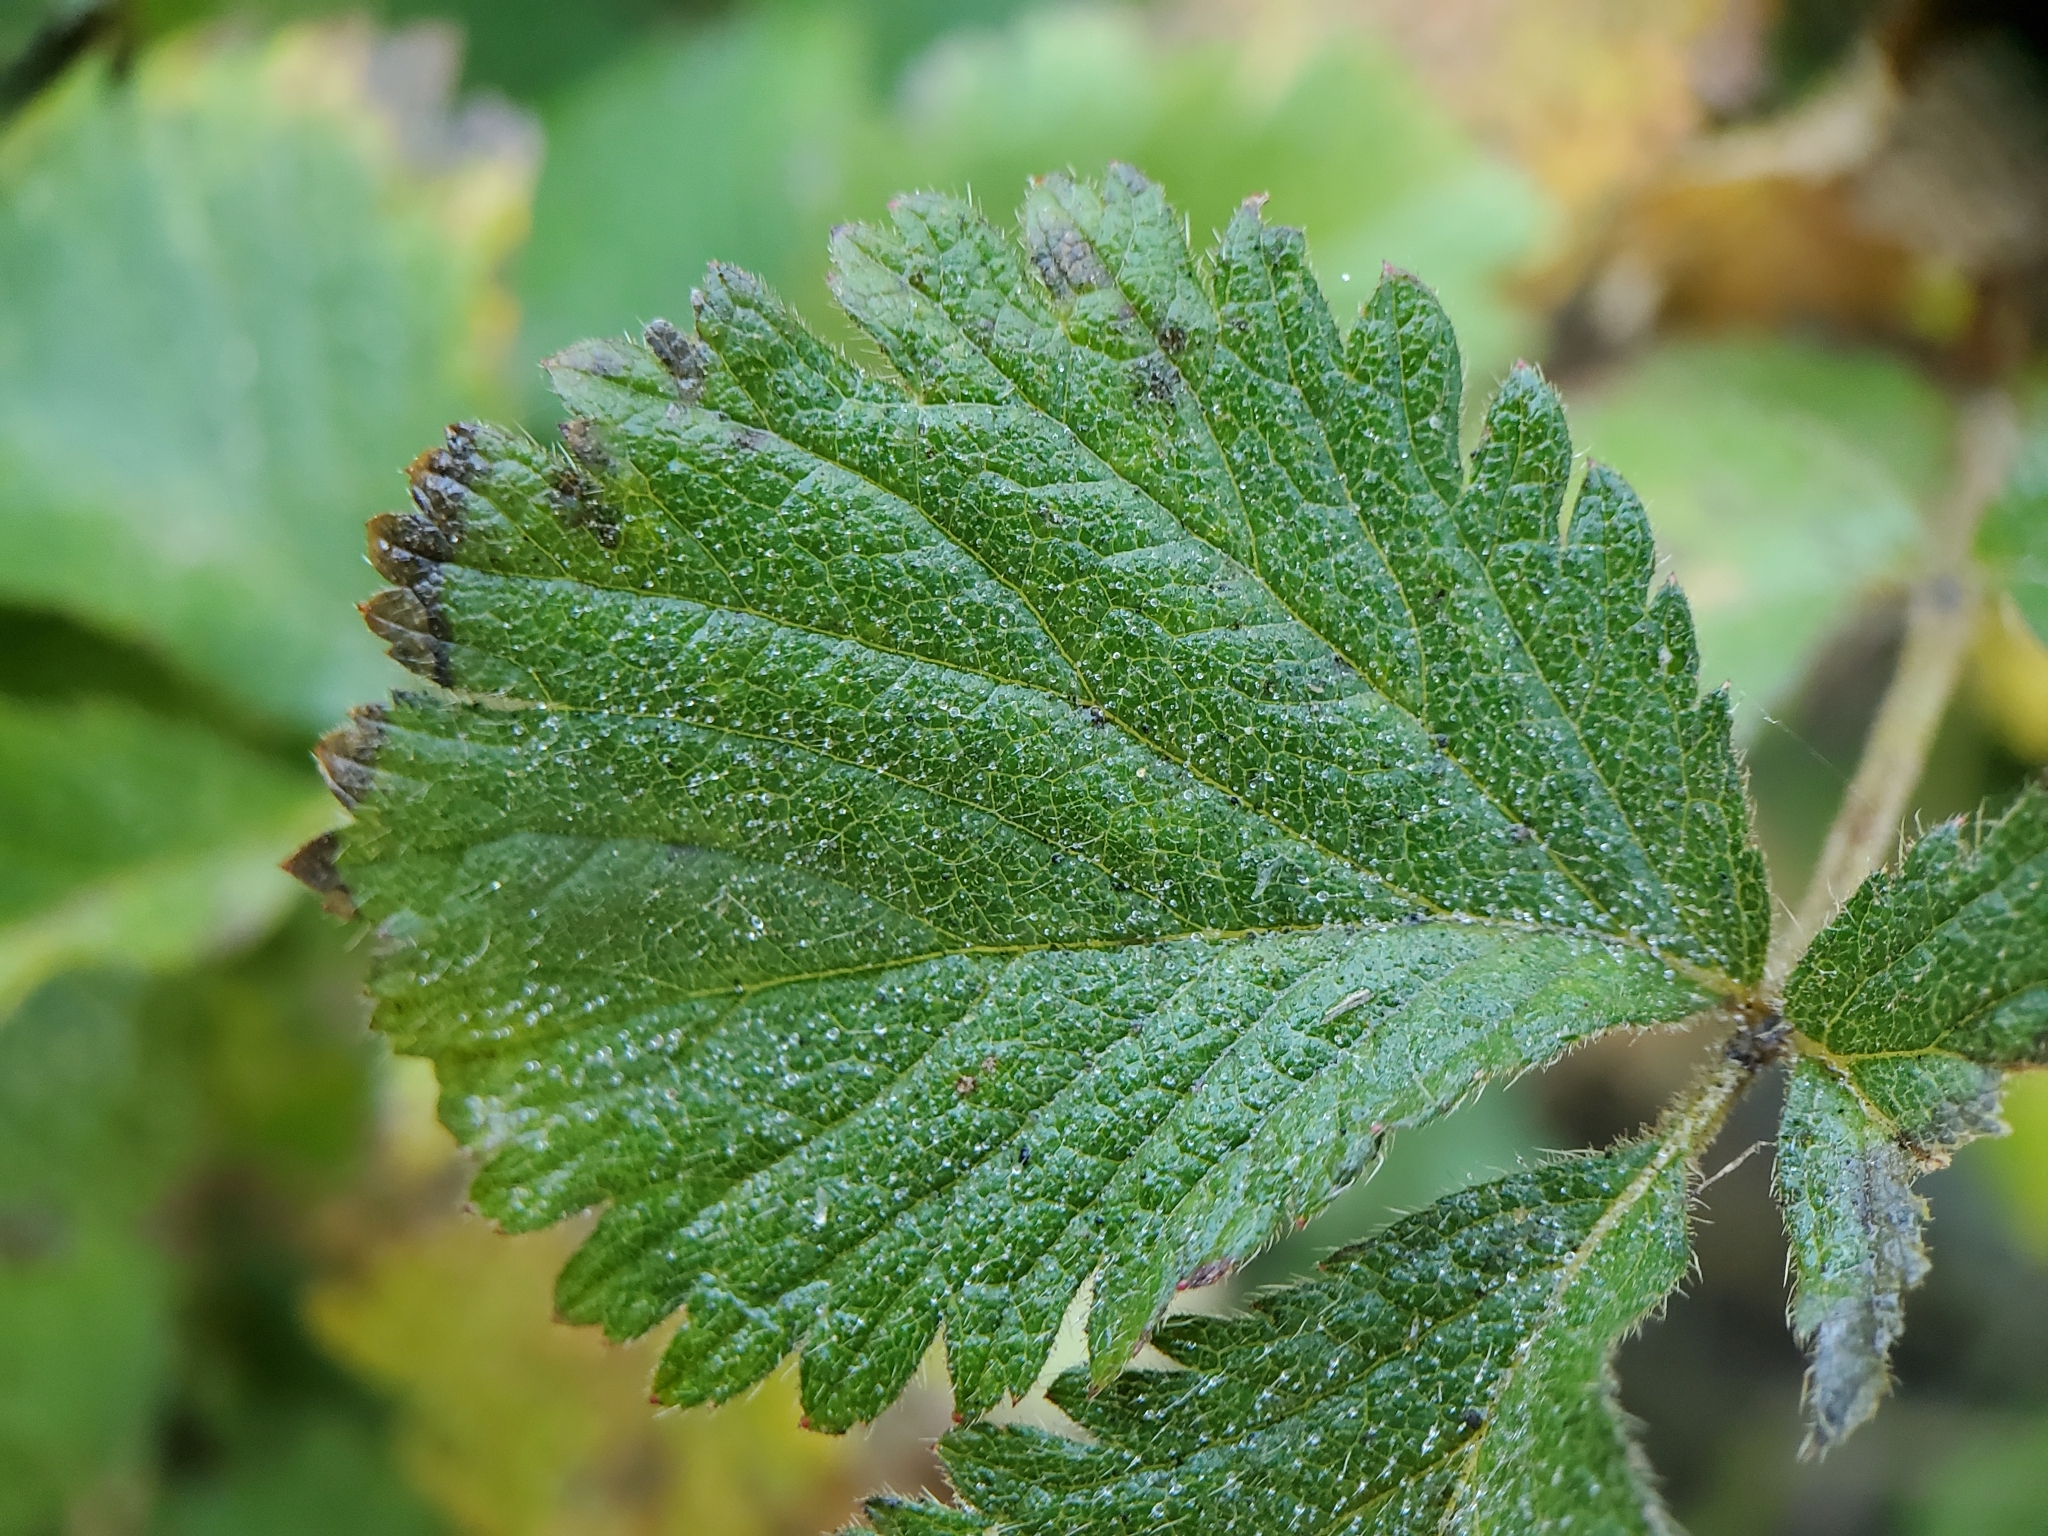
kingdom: Plantae
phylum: Tracheophyta
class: Magnoliopsida
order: Rosales
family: Rosaceae
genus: Drymocallis
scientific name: Drymocallis glandulosa
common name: Sticky cinquefoil
